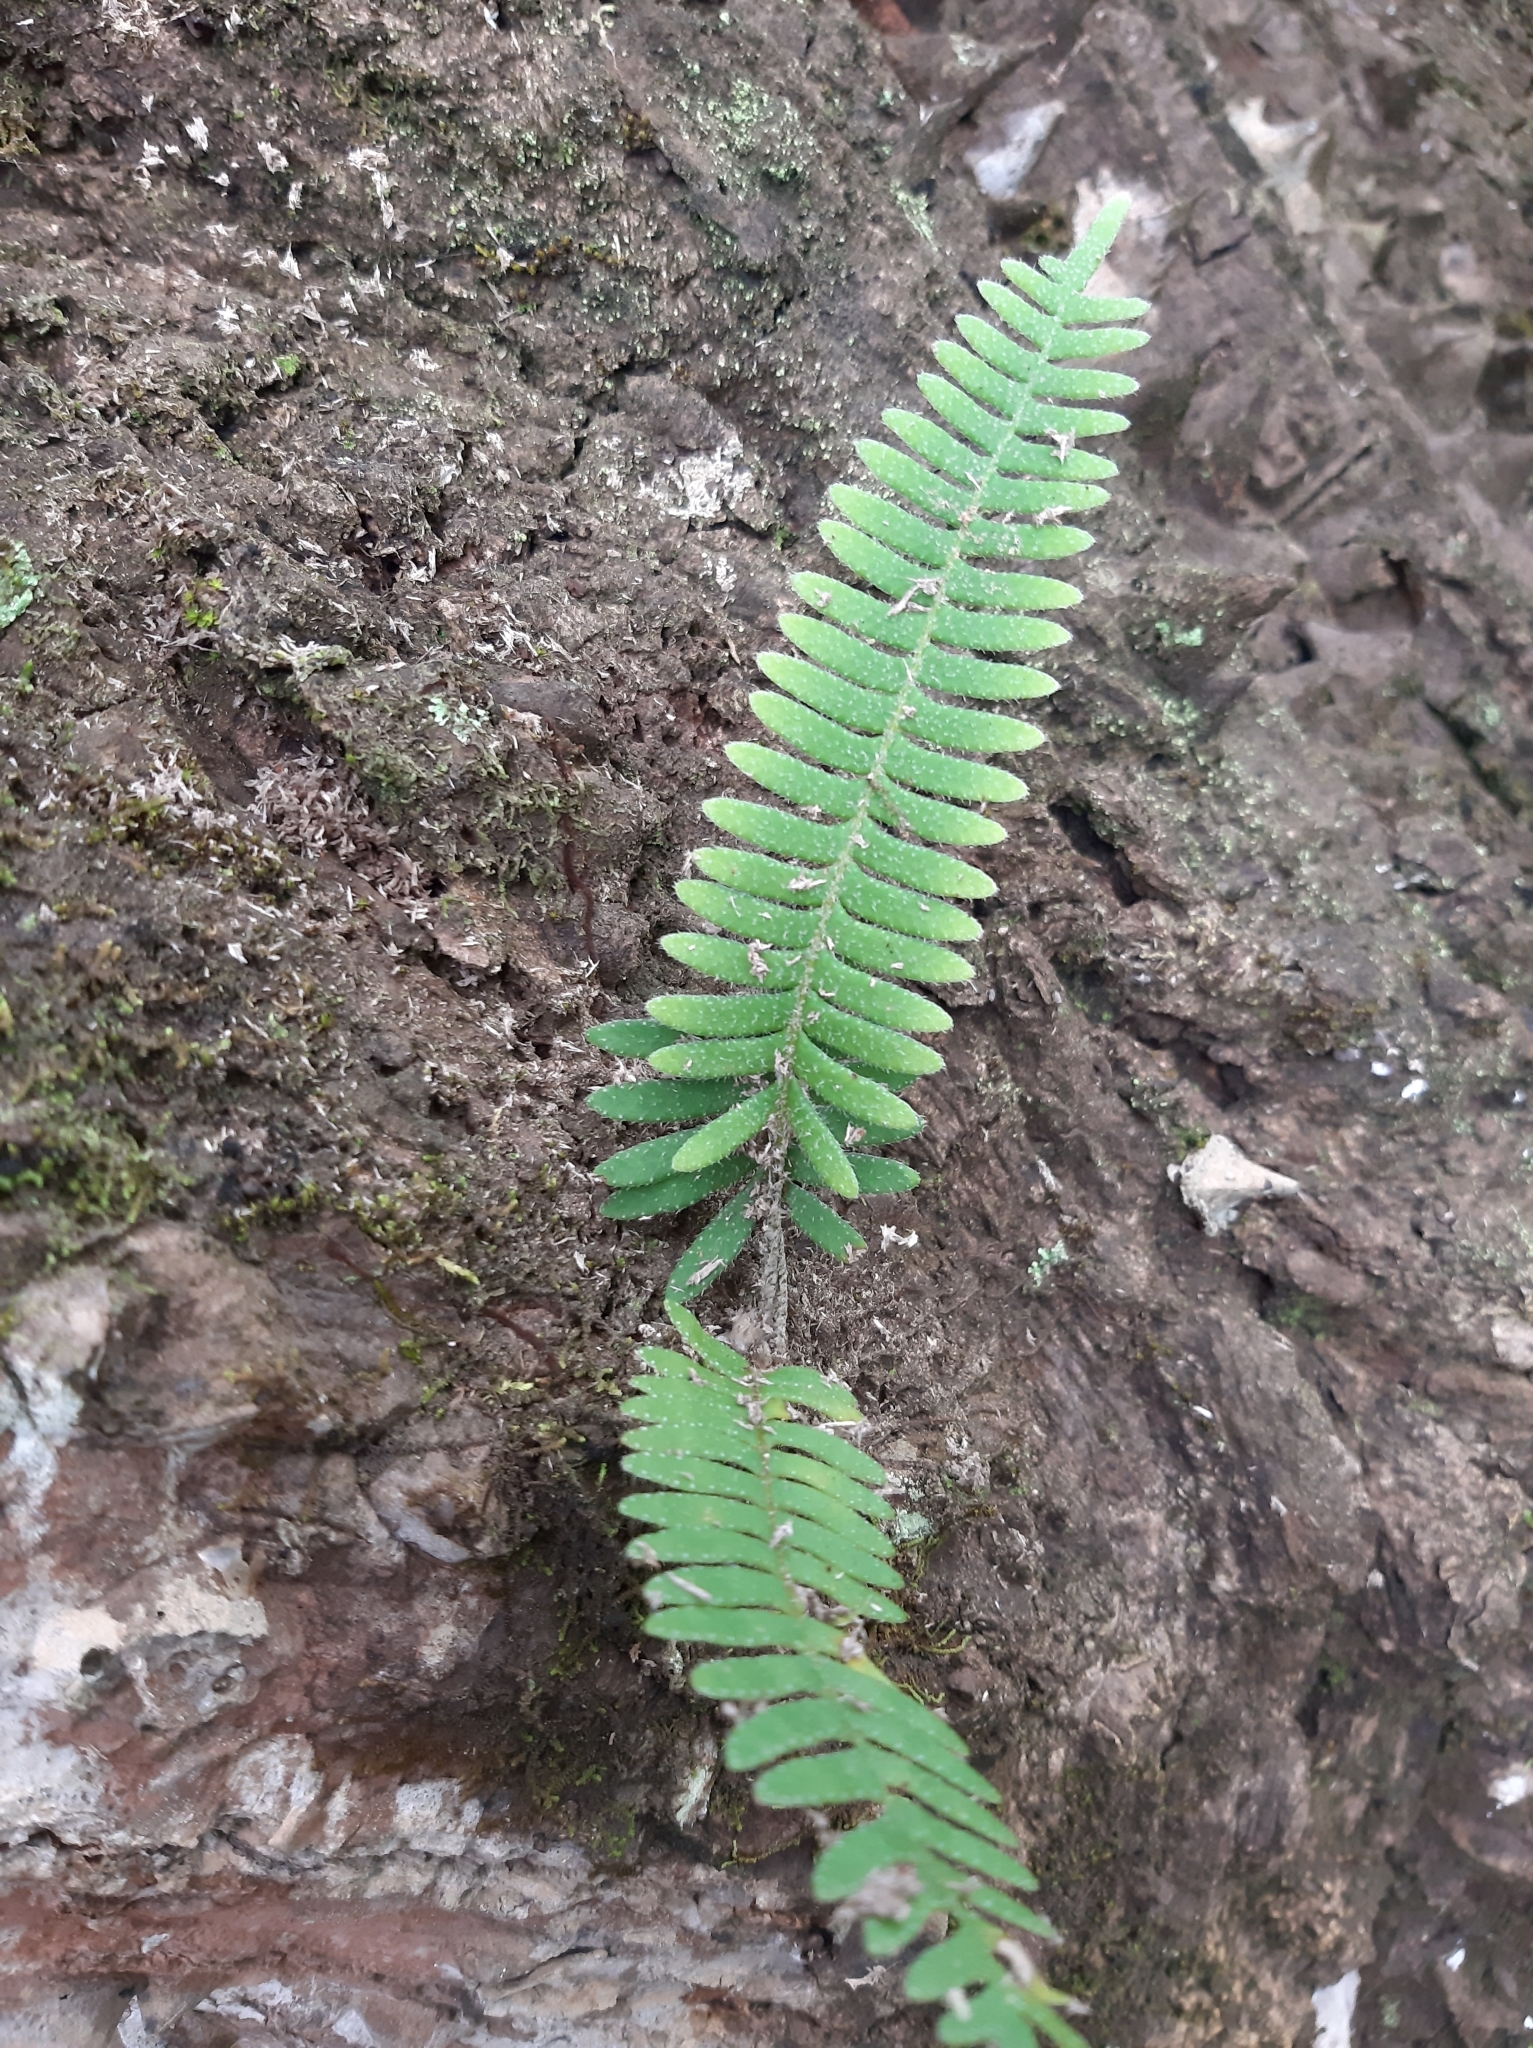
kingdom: Plantae
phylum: Tracheophyta
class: Polypodiopsida
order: Polypodiales
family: Polypodiaceae
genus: Pleopeltis
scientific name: Pleopeltis polypodioides
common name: Resurrection fern
